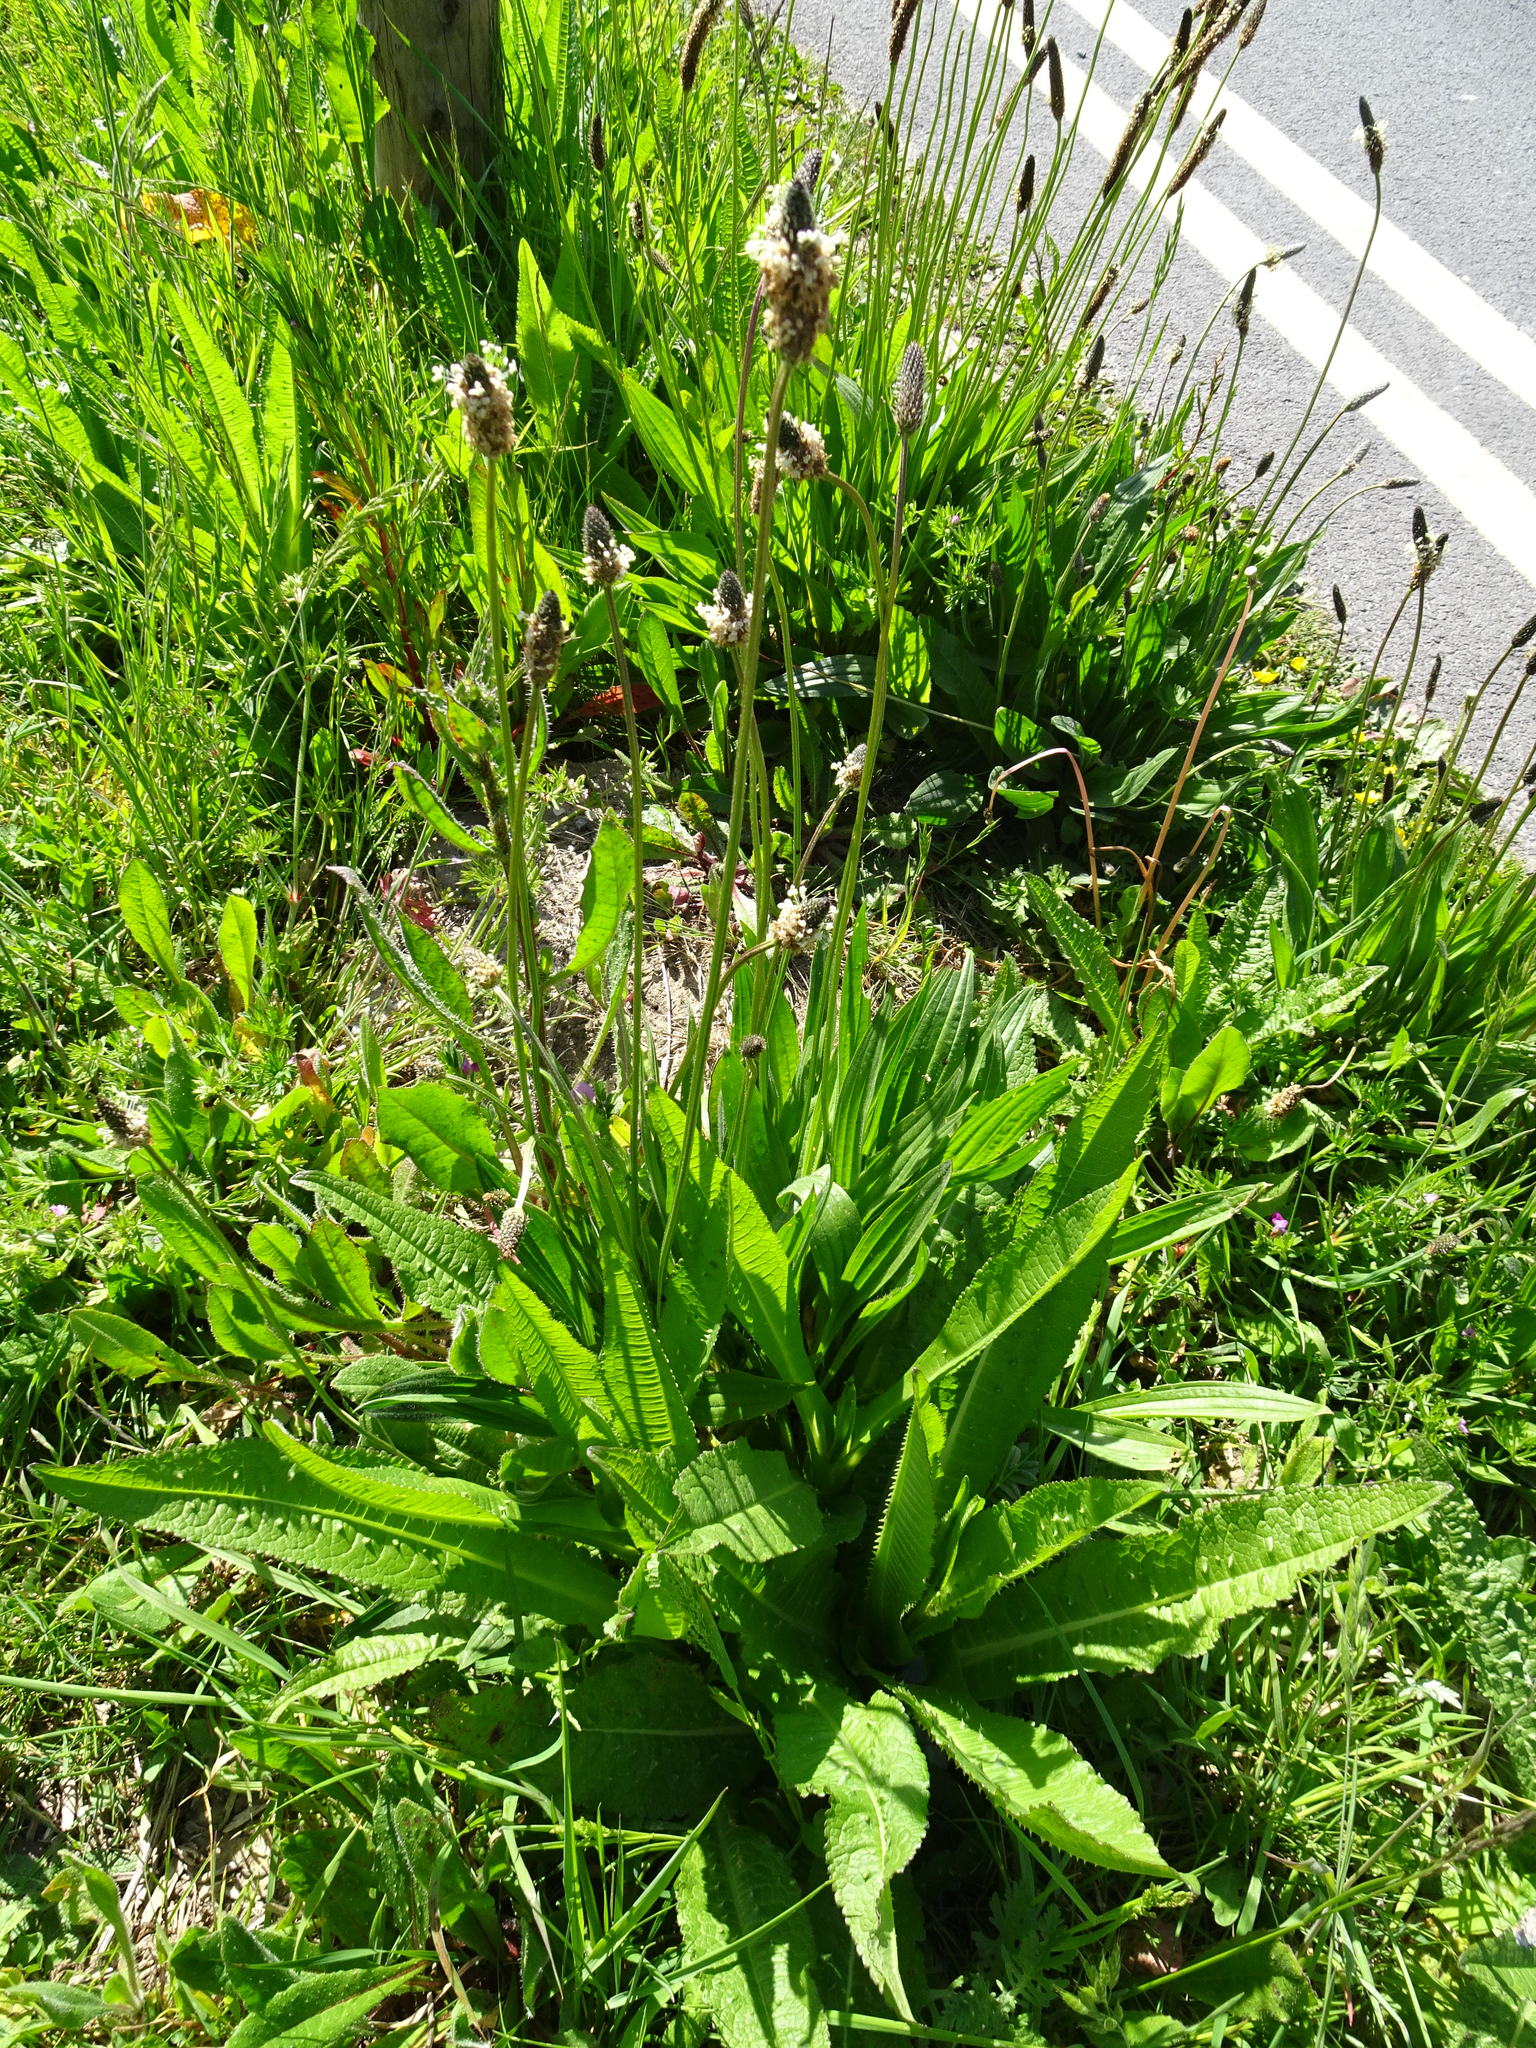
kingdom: Plantae
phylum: Tracheophyta
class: Magnoliopsida
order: Lamiales
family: Plantaginaceae
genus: Plantago
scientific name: Plantago lanceolata
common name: Ribwort plantain
